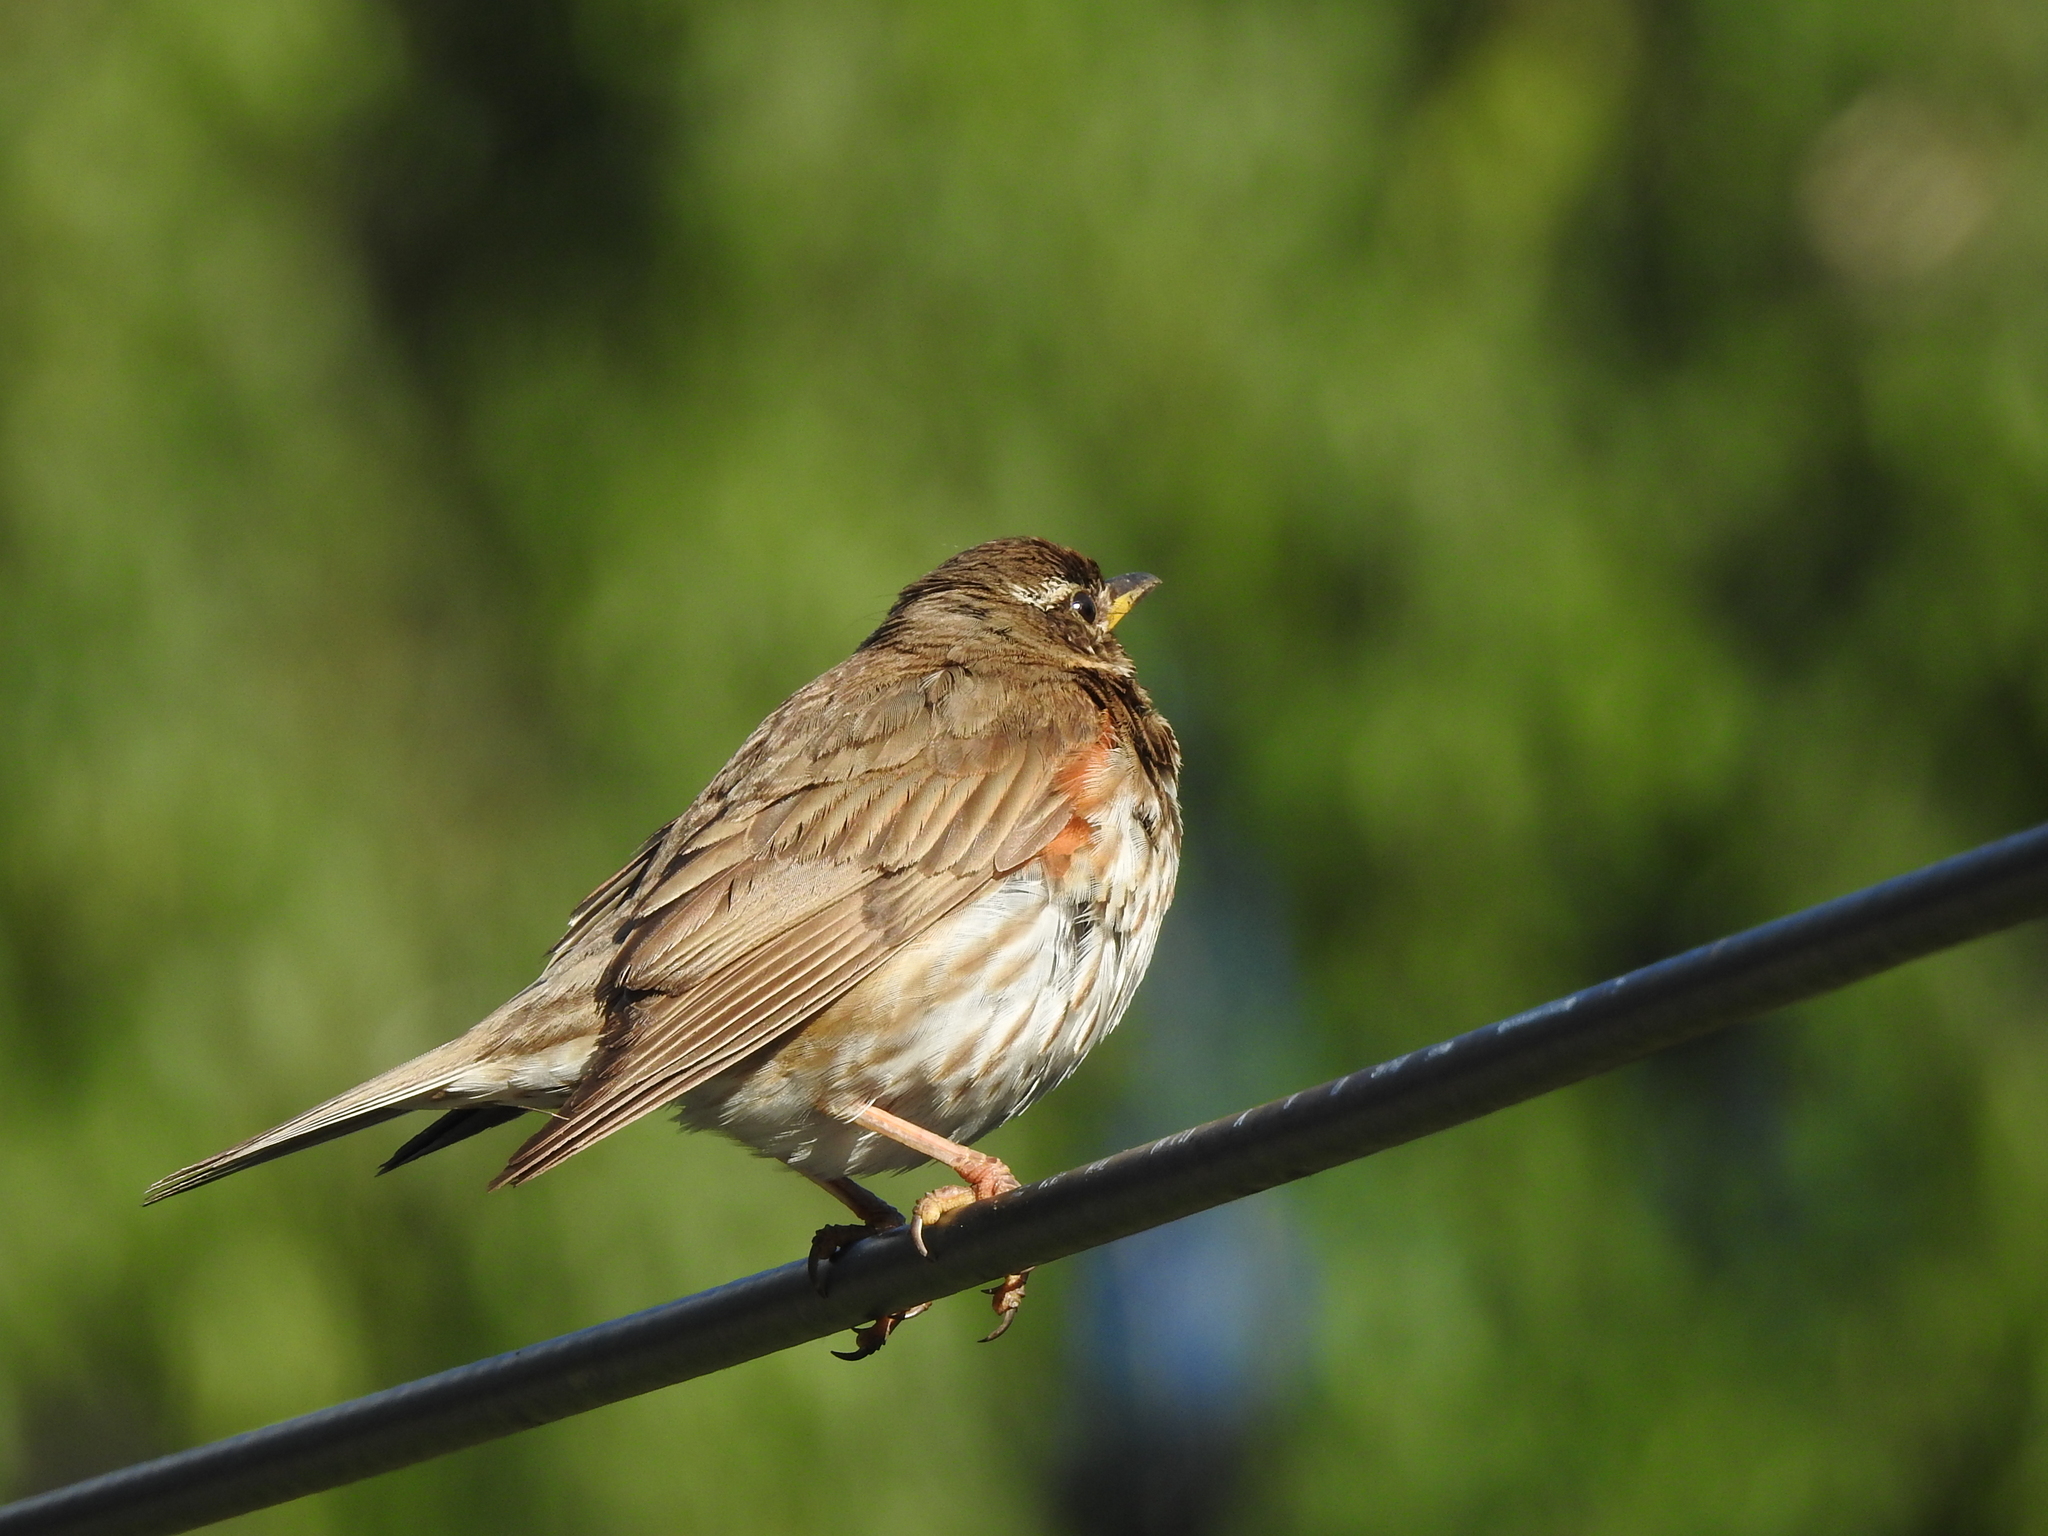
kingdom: Animalia
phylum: Chordata
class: Aves
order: Passeriformes
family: Turdidae
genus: Turdus
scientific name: Turdus iliacus
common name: Redwing
